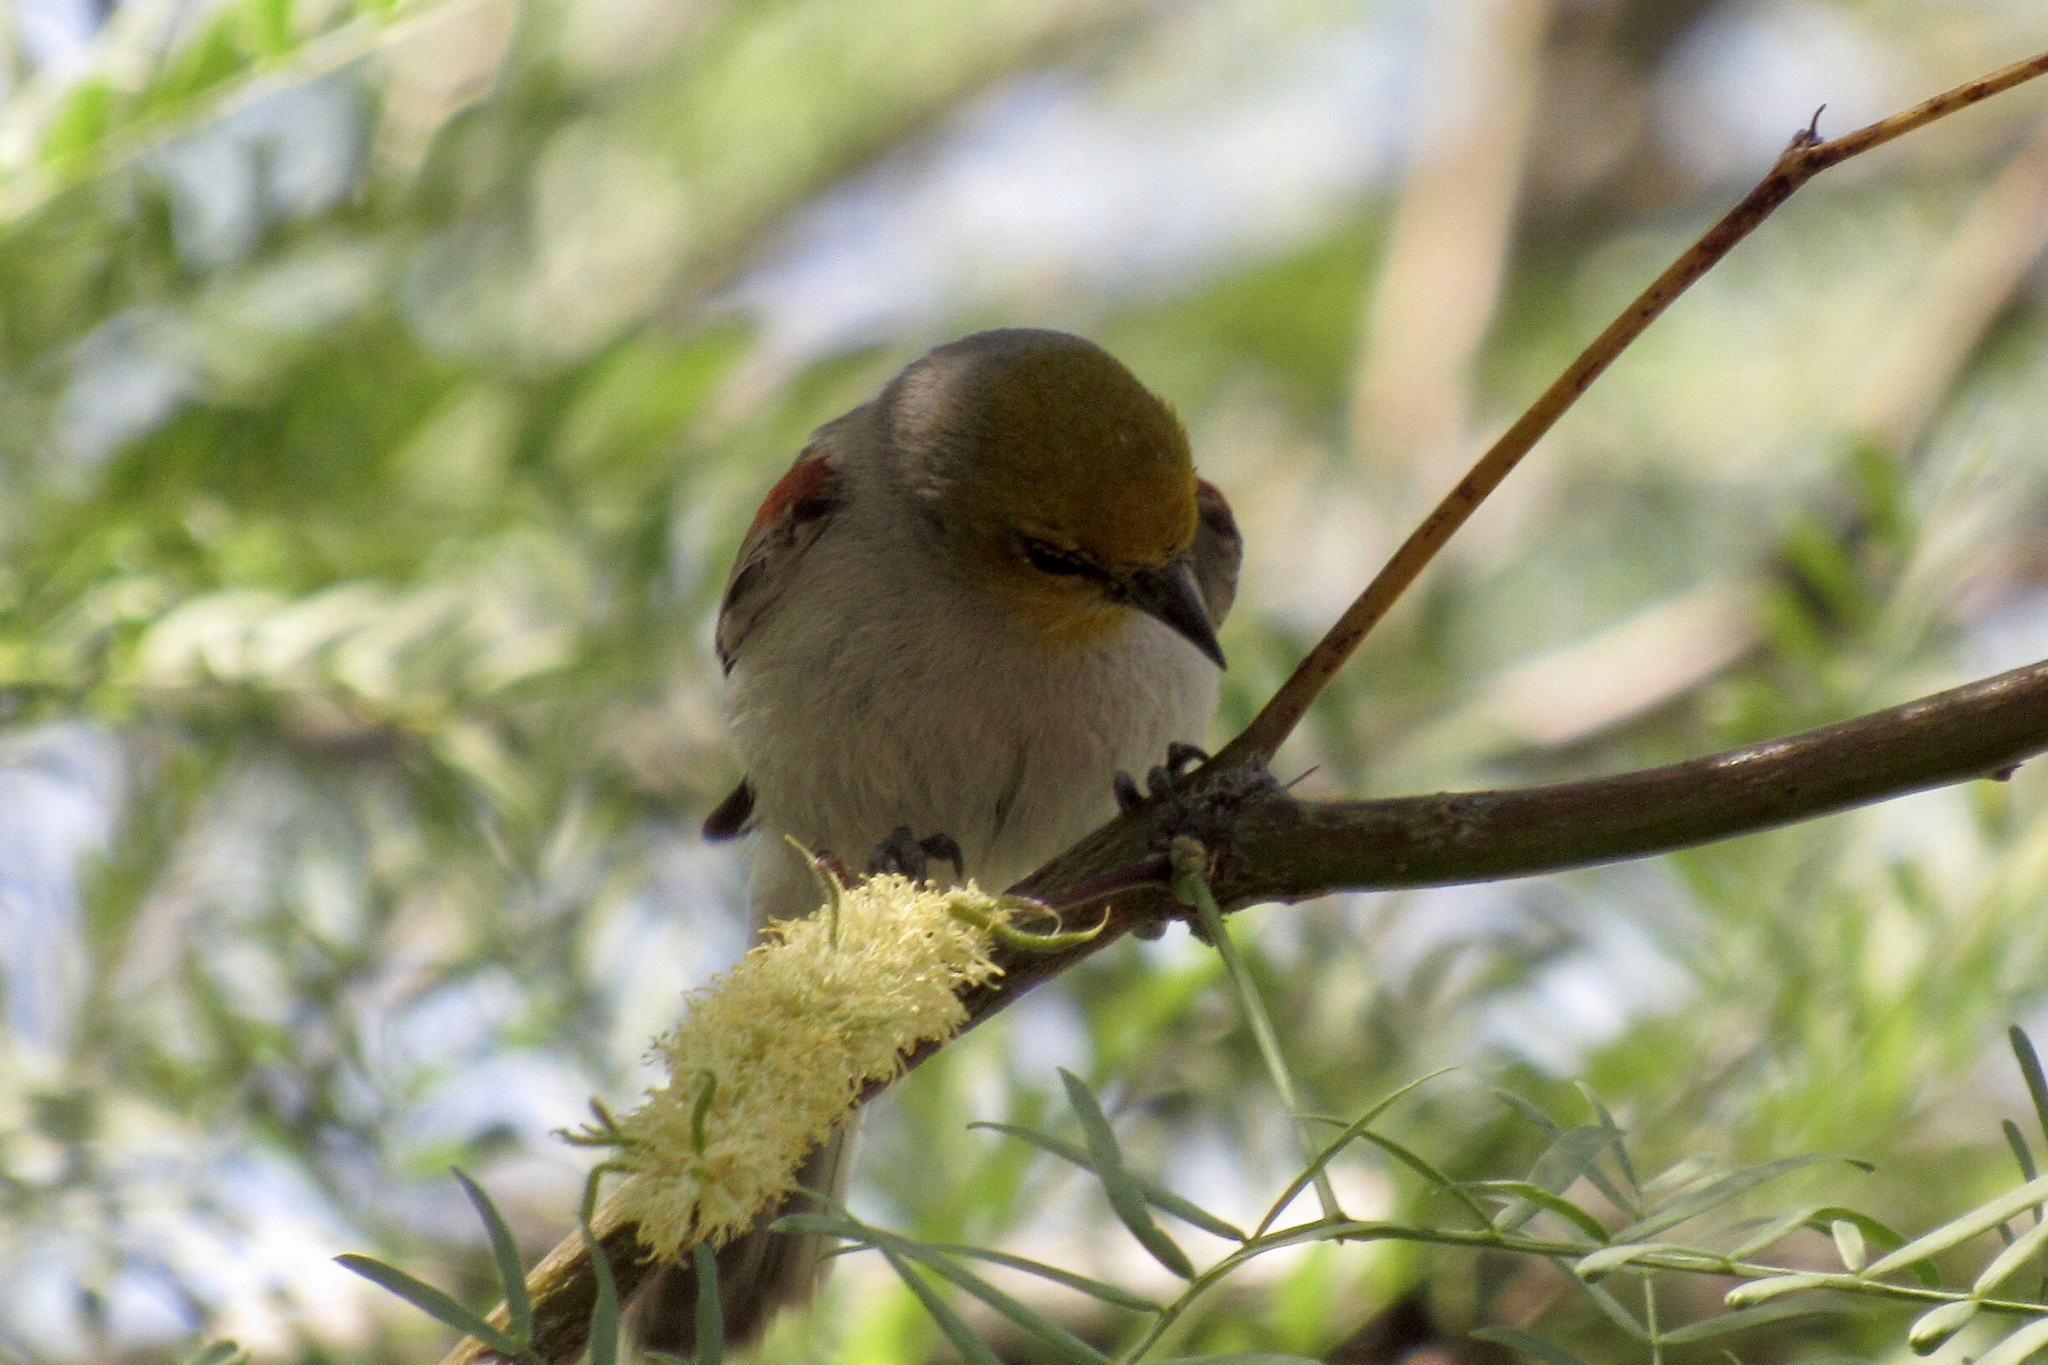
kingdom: Animalia
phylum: Chordata
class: Aves
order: Passeriformes
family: Remizidae
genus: Auriparus
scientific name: Auriparus flaviceps
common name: Verdin
